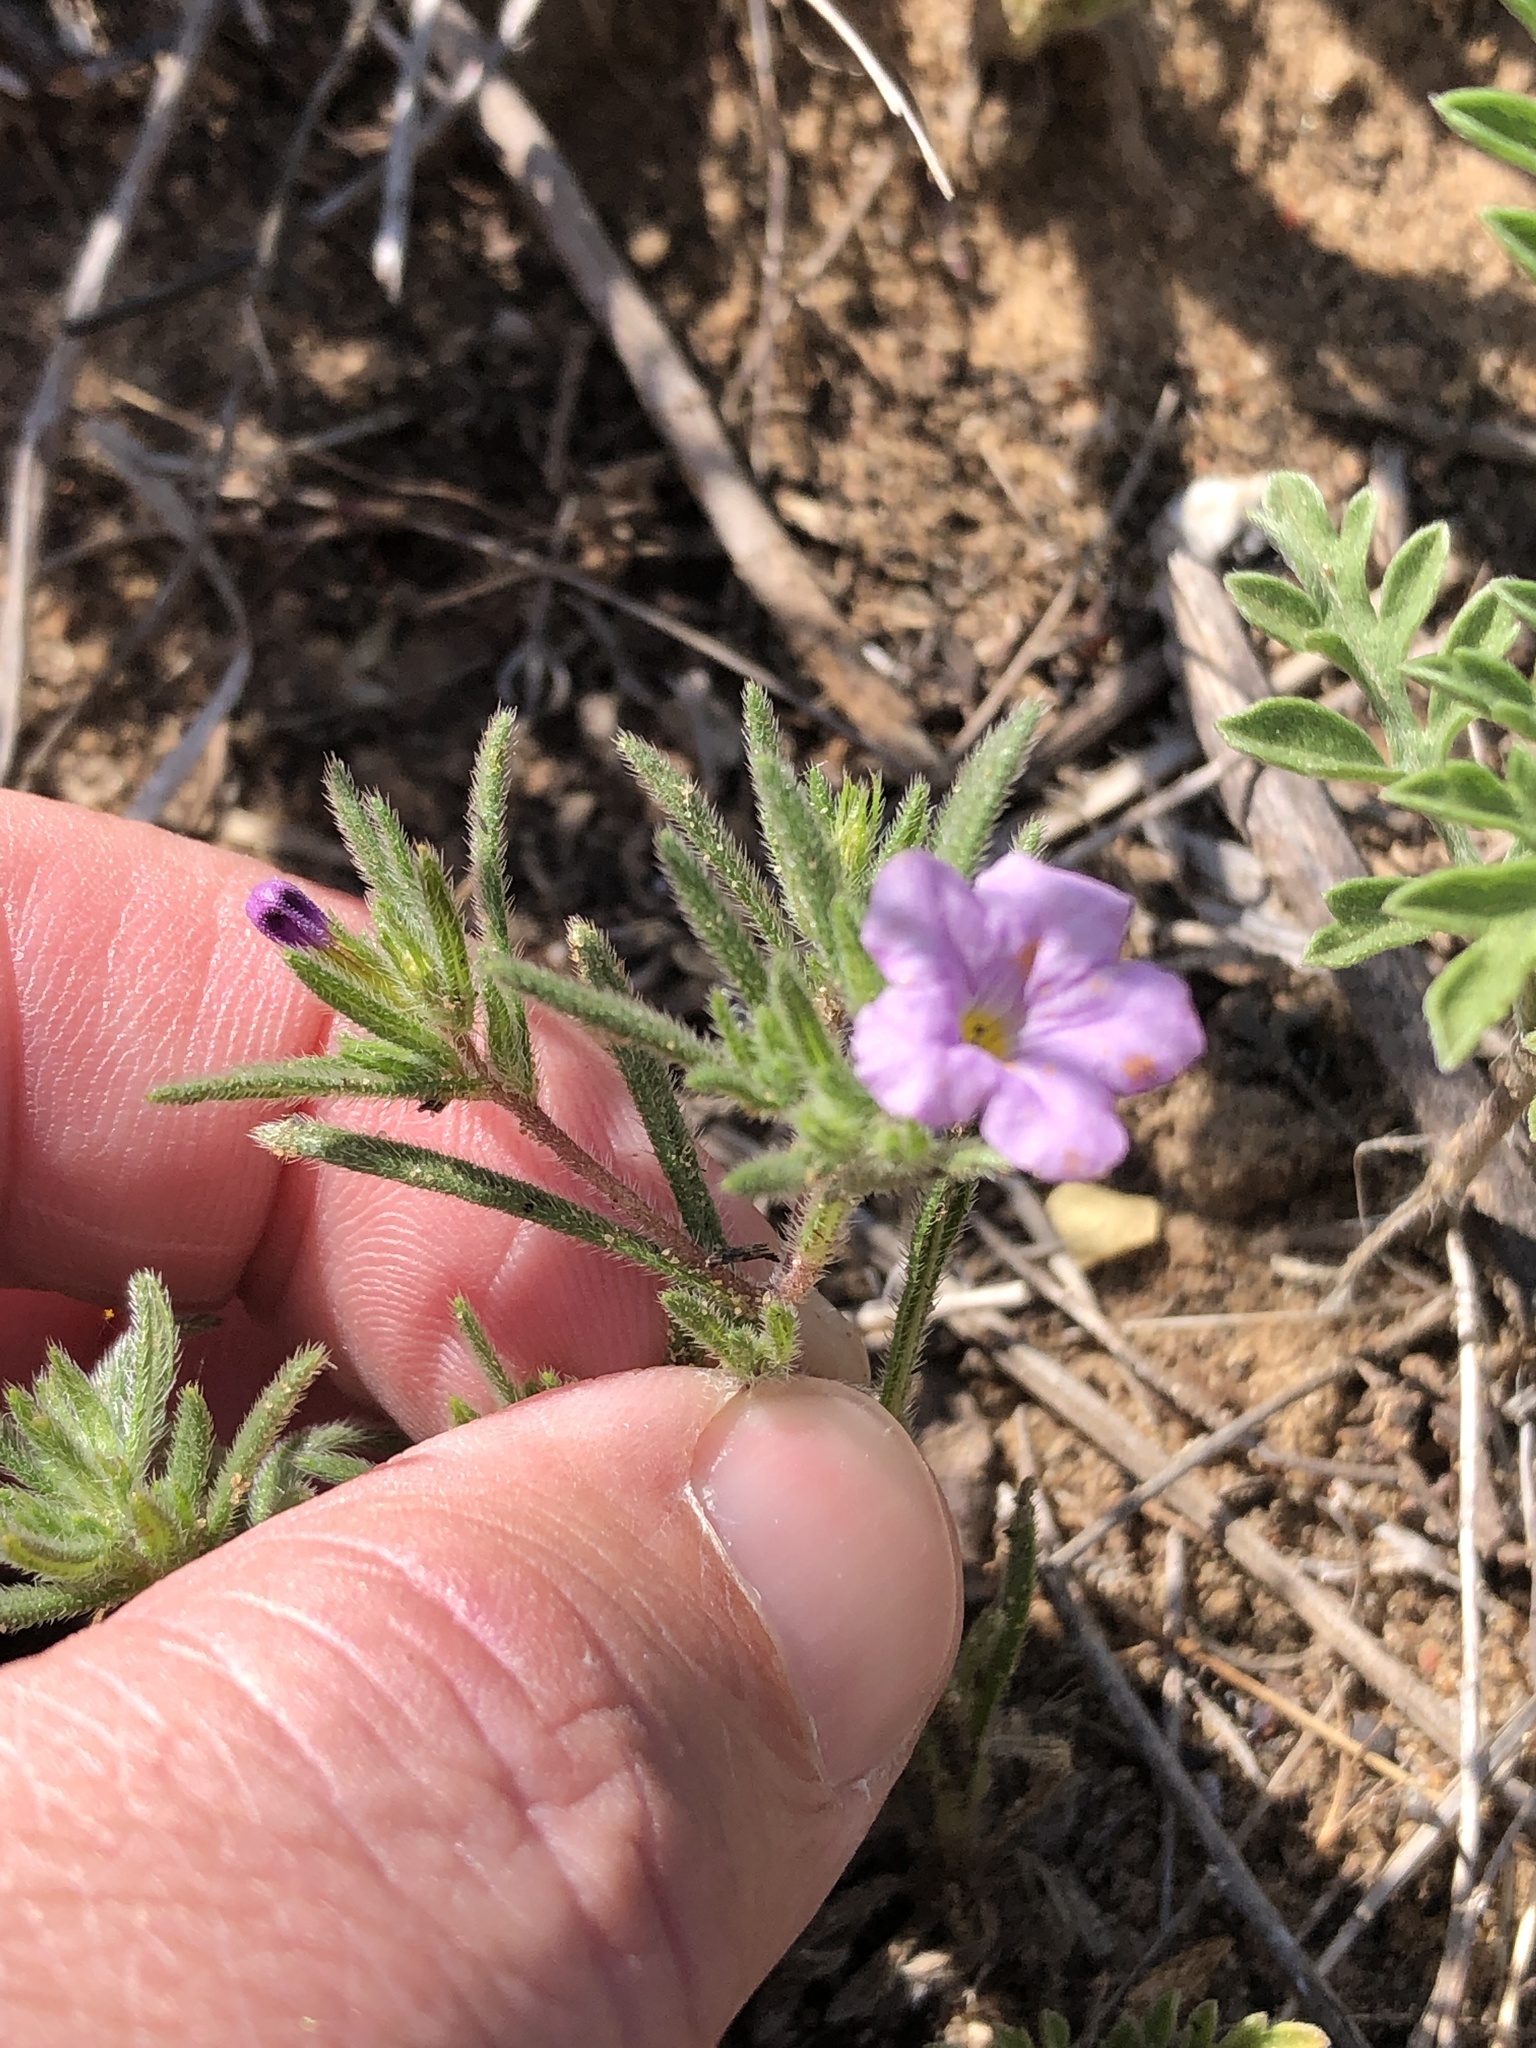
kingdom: Plantae
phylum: Tracheophyta
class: Magnoliopsida
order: Boraginales
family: Namaceae
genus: Nama
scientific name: Nama hispida
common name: Bristly nama
